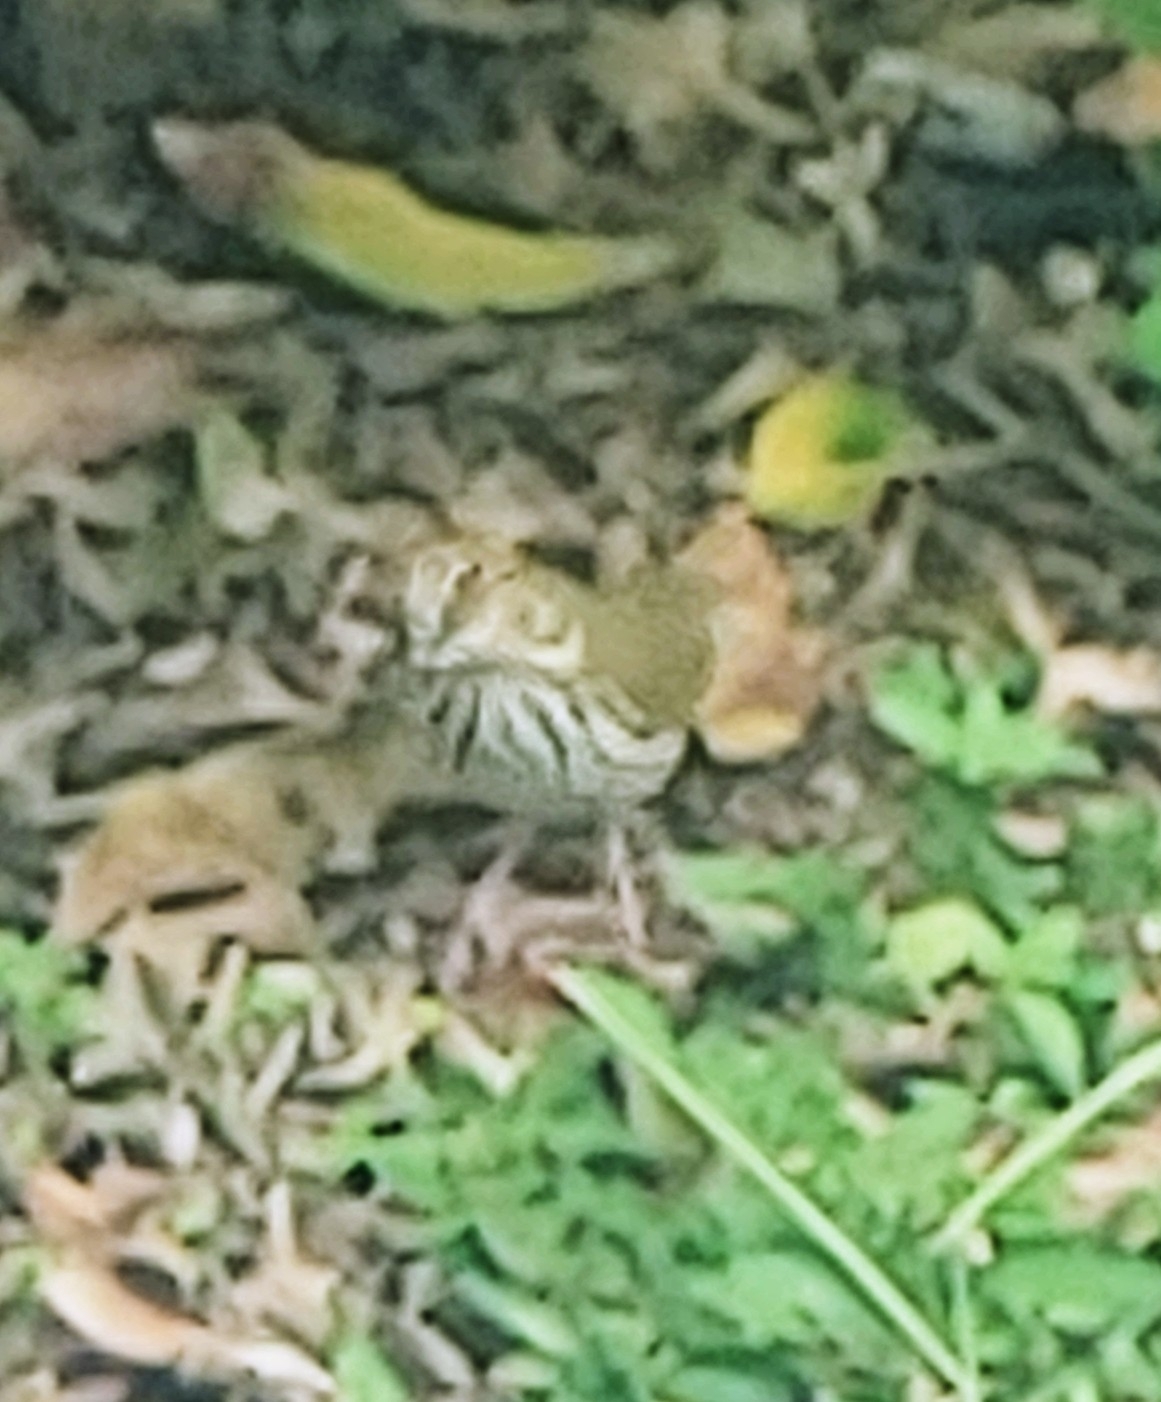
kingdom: Animalia
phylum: Chordata
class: Aves
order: Passeriformes
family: Parulidae
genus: Seiurus
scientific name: Seiurus aurocapilla
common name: Ovenbird
